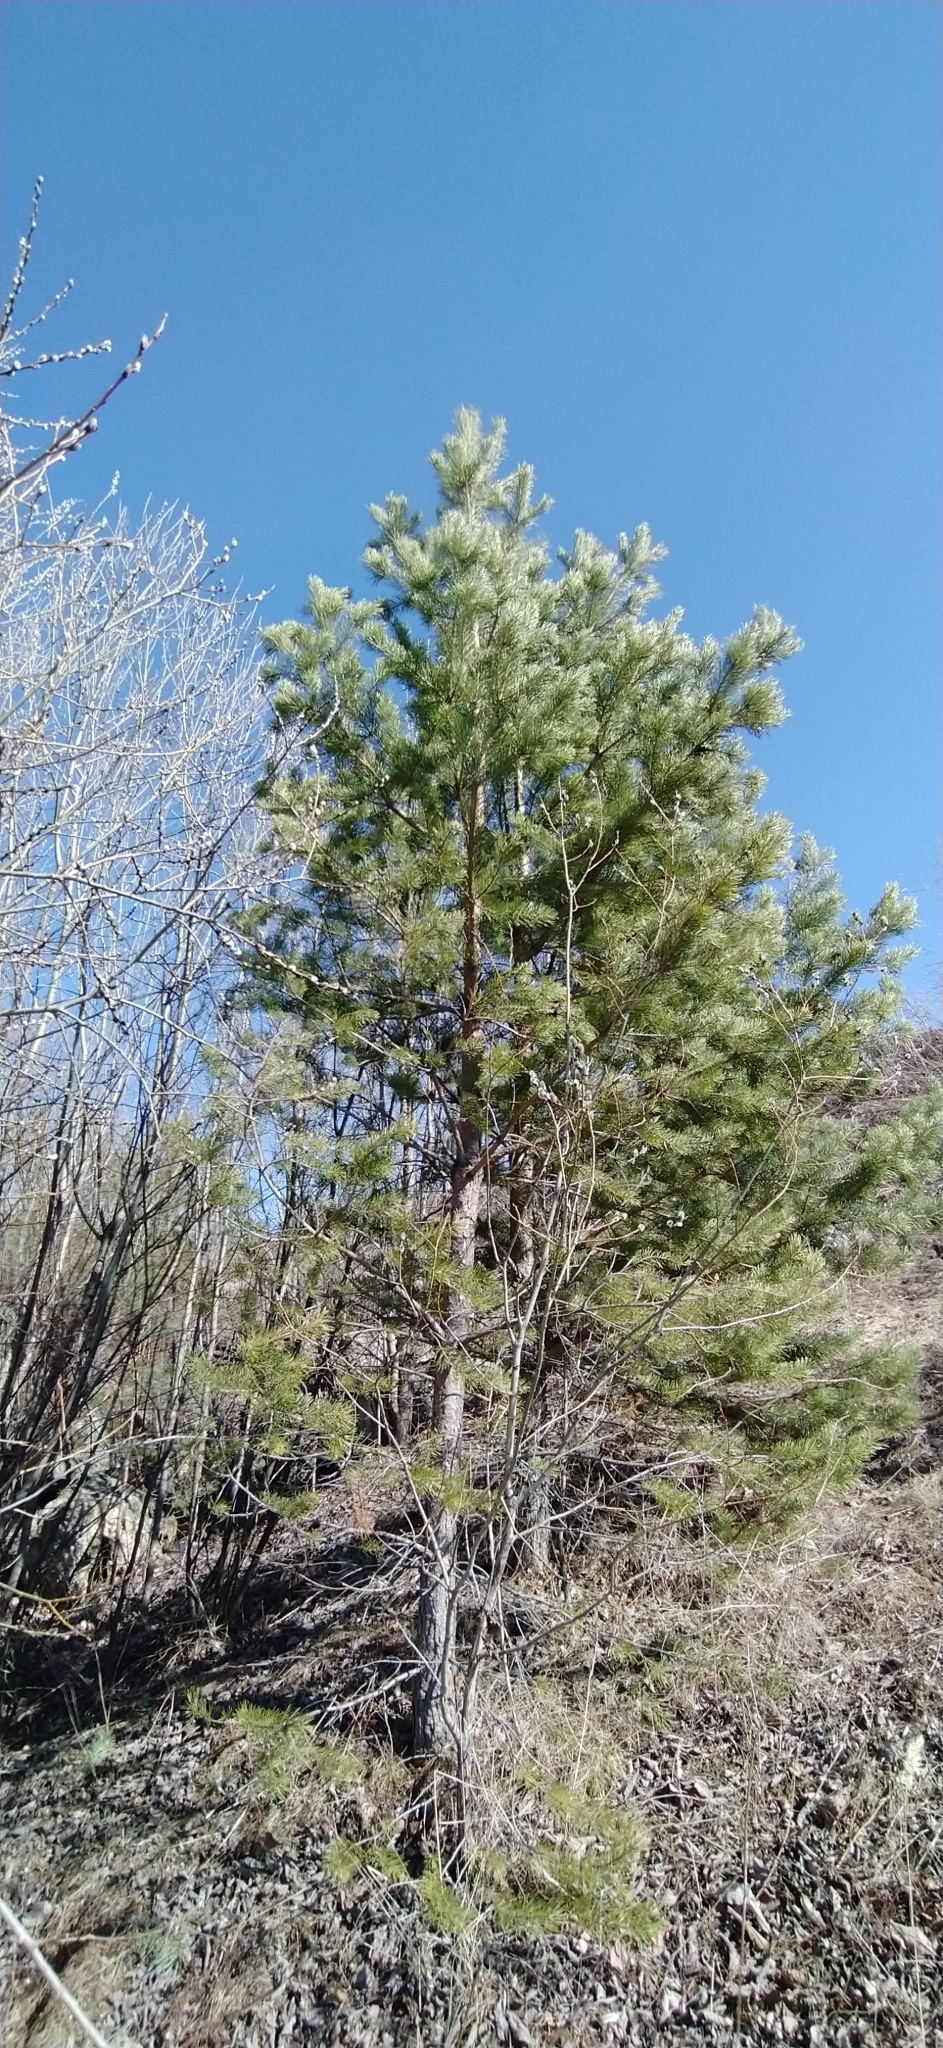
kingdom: Plantae
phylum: Tracheophyta
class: Pinopsida
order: Pinales
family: Pinaceae
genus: Pinus
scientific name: Pinus sylvestris
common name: Scots pine
